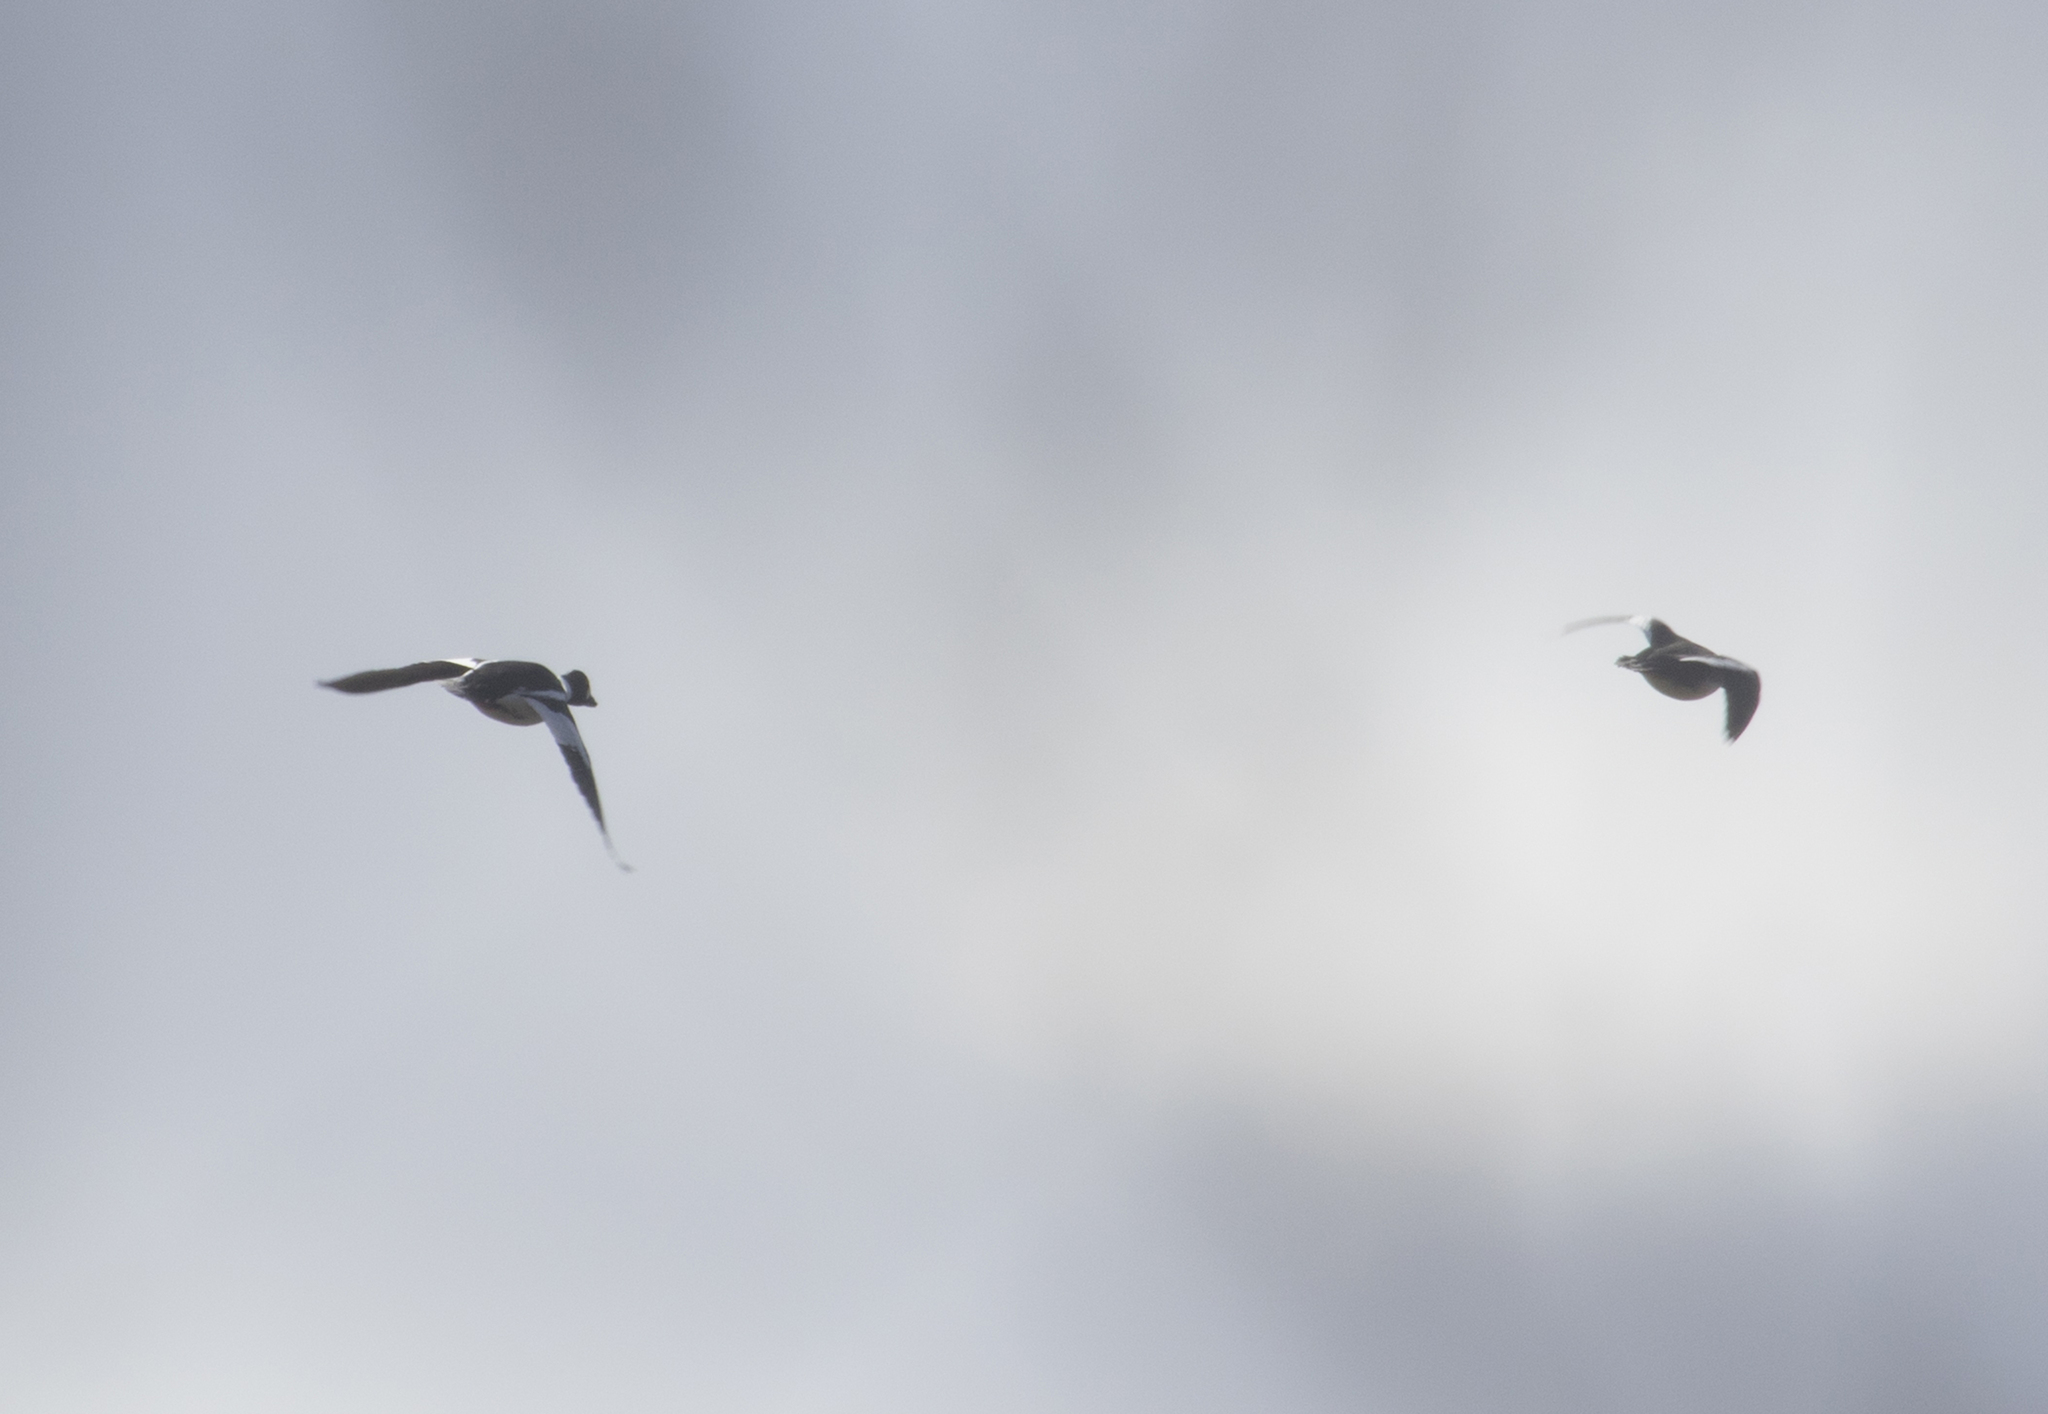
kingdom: Animalia
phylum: Chordata
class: Aves
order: Anseriformes
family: Anatidae
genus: Bucephala
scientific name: Bucephala clangula
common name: Common goldeneye
